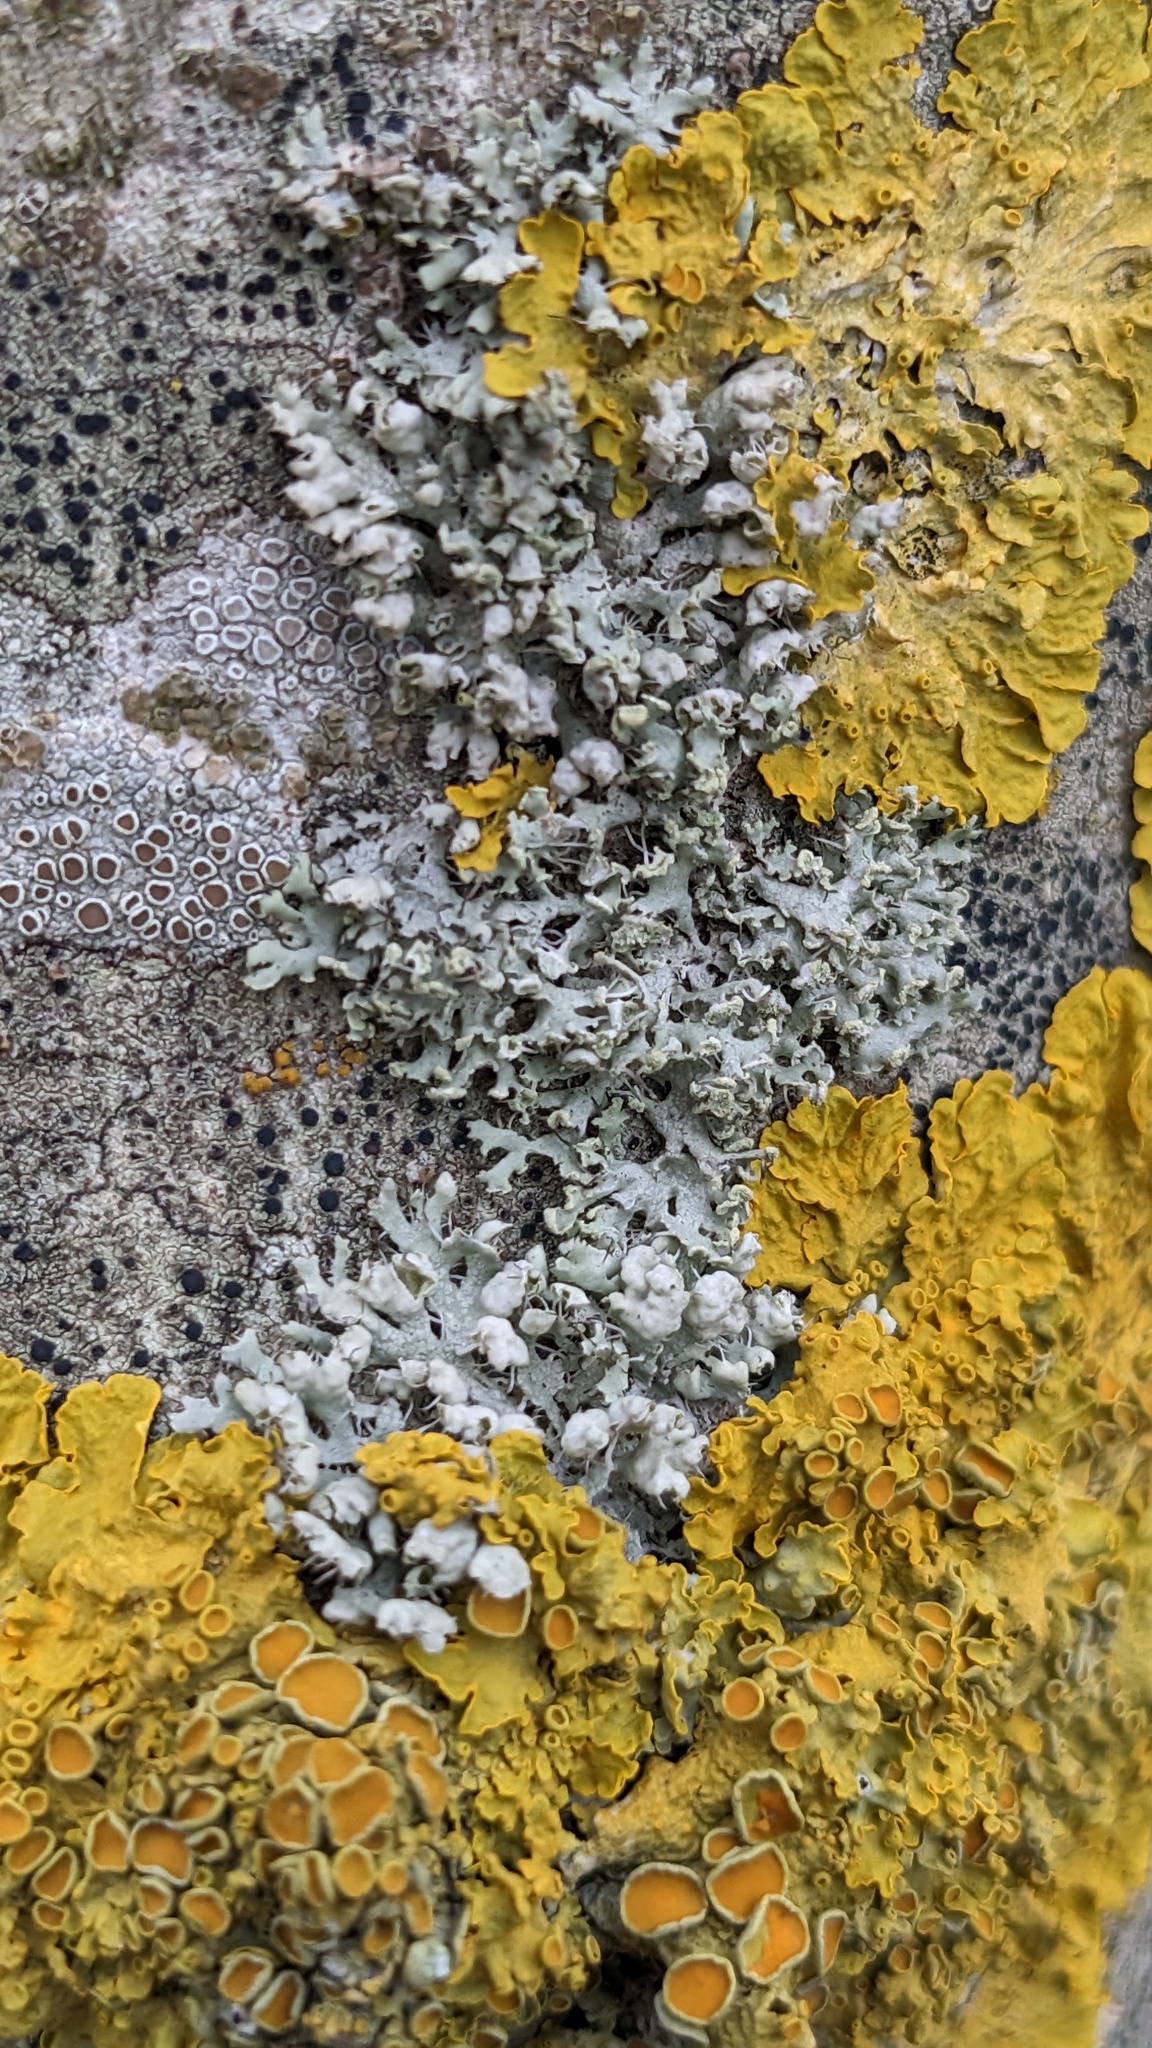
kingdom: Fungi
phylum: Ascomycota
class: Lecanoromycetes
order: Caliciales
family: Physciaceae
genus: Physcia
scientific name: Physcia adscendens
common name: Hooded rosette lichen
